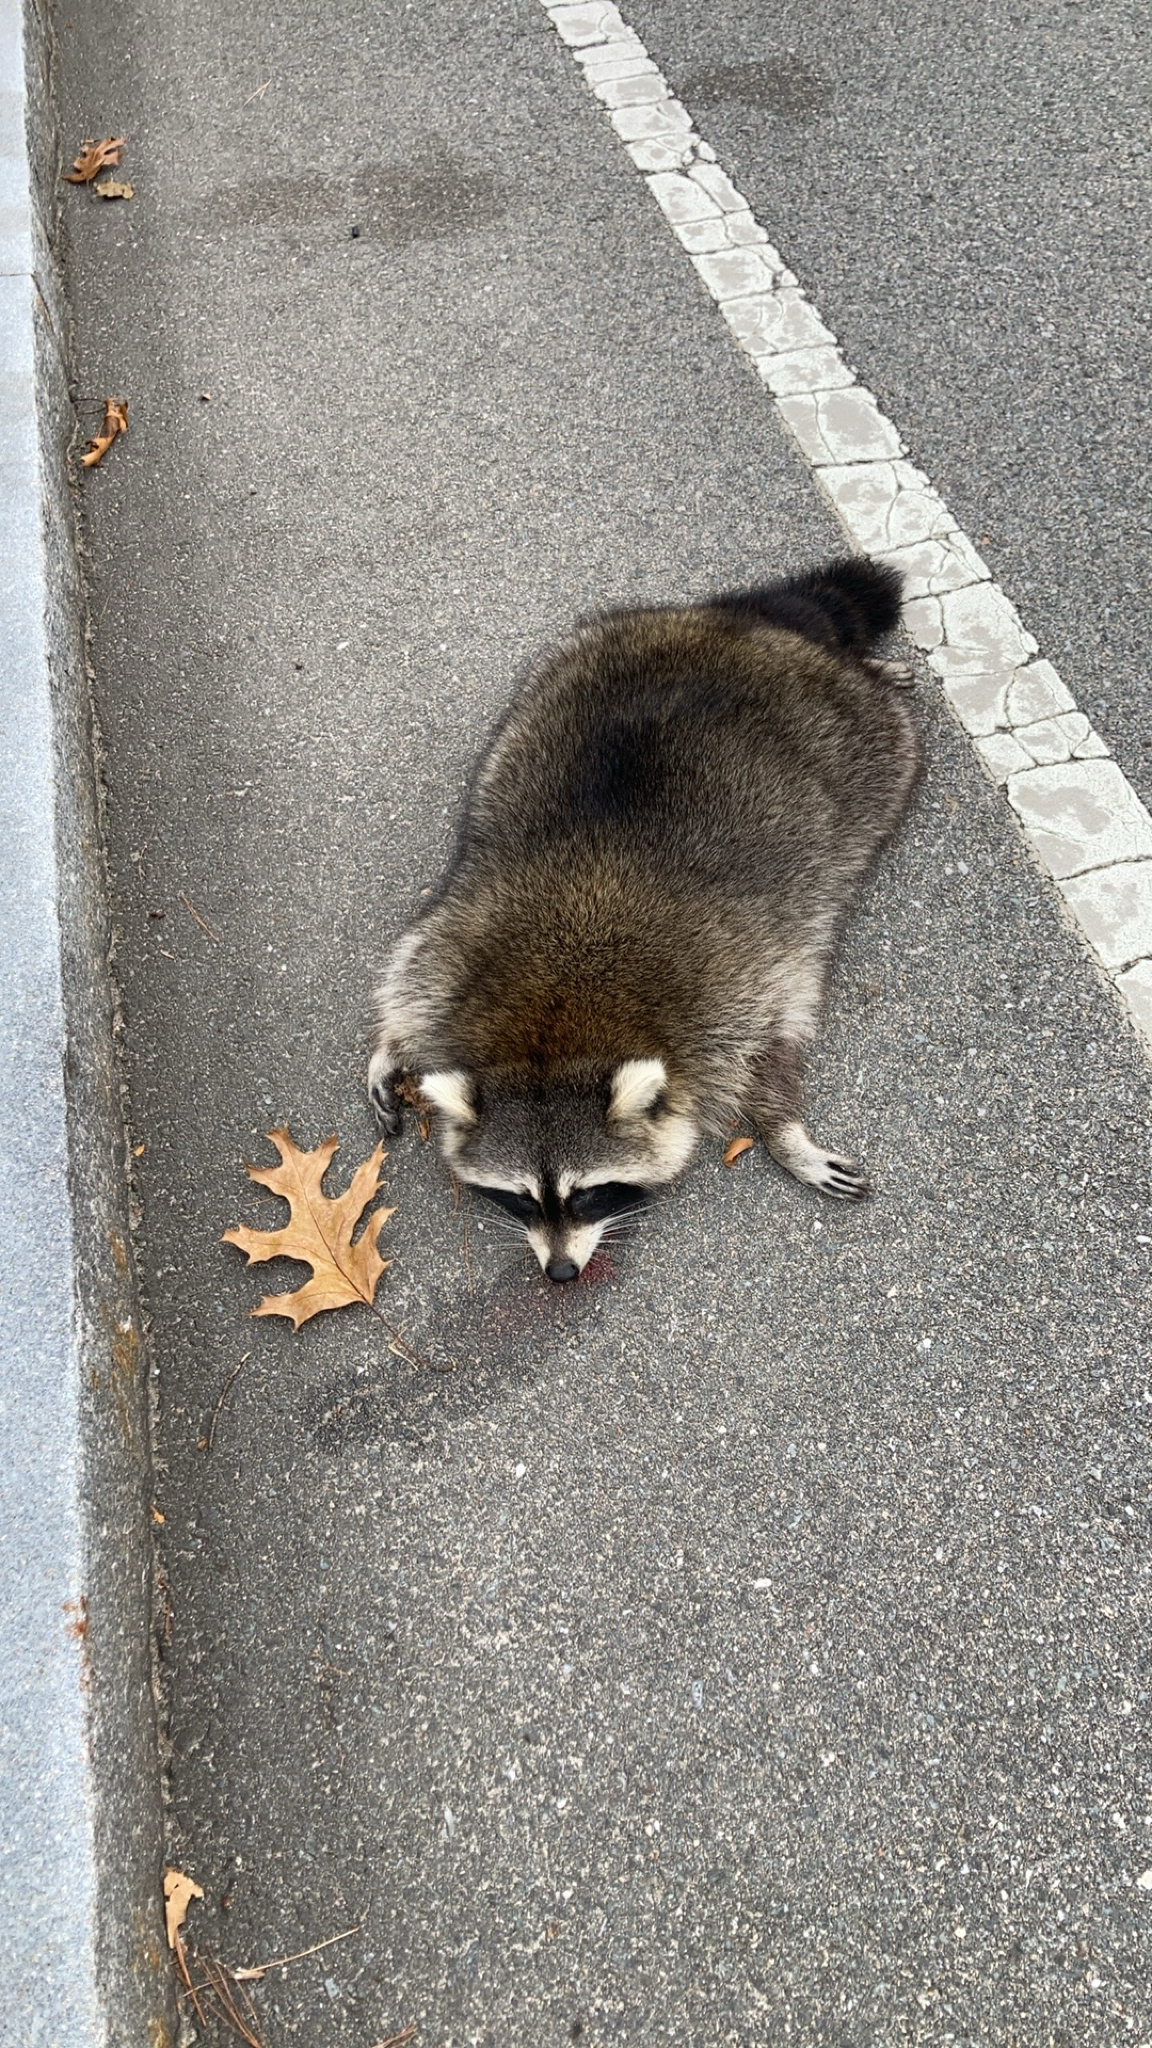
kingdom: Animalia
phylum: Chordata
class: Mammalia
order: Carnivora
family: Procyonidae
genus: Procyon
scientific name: Procyon lotor
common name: Raccoon
